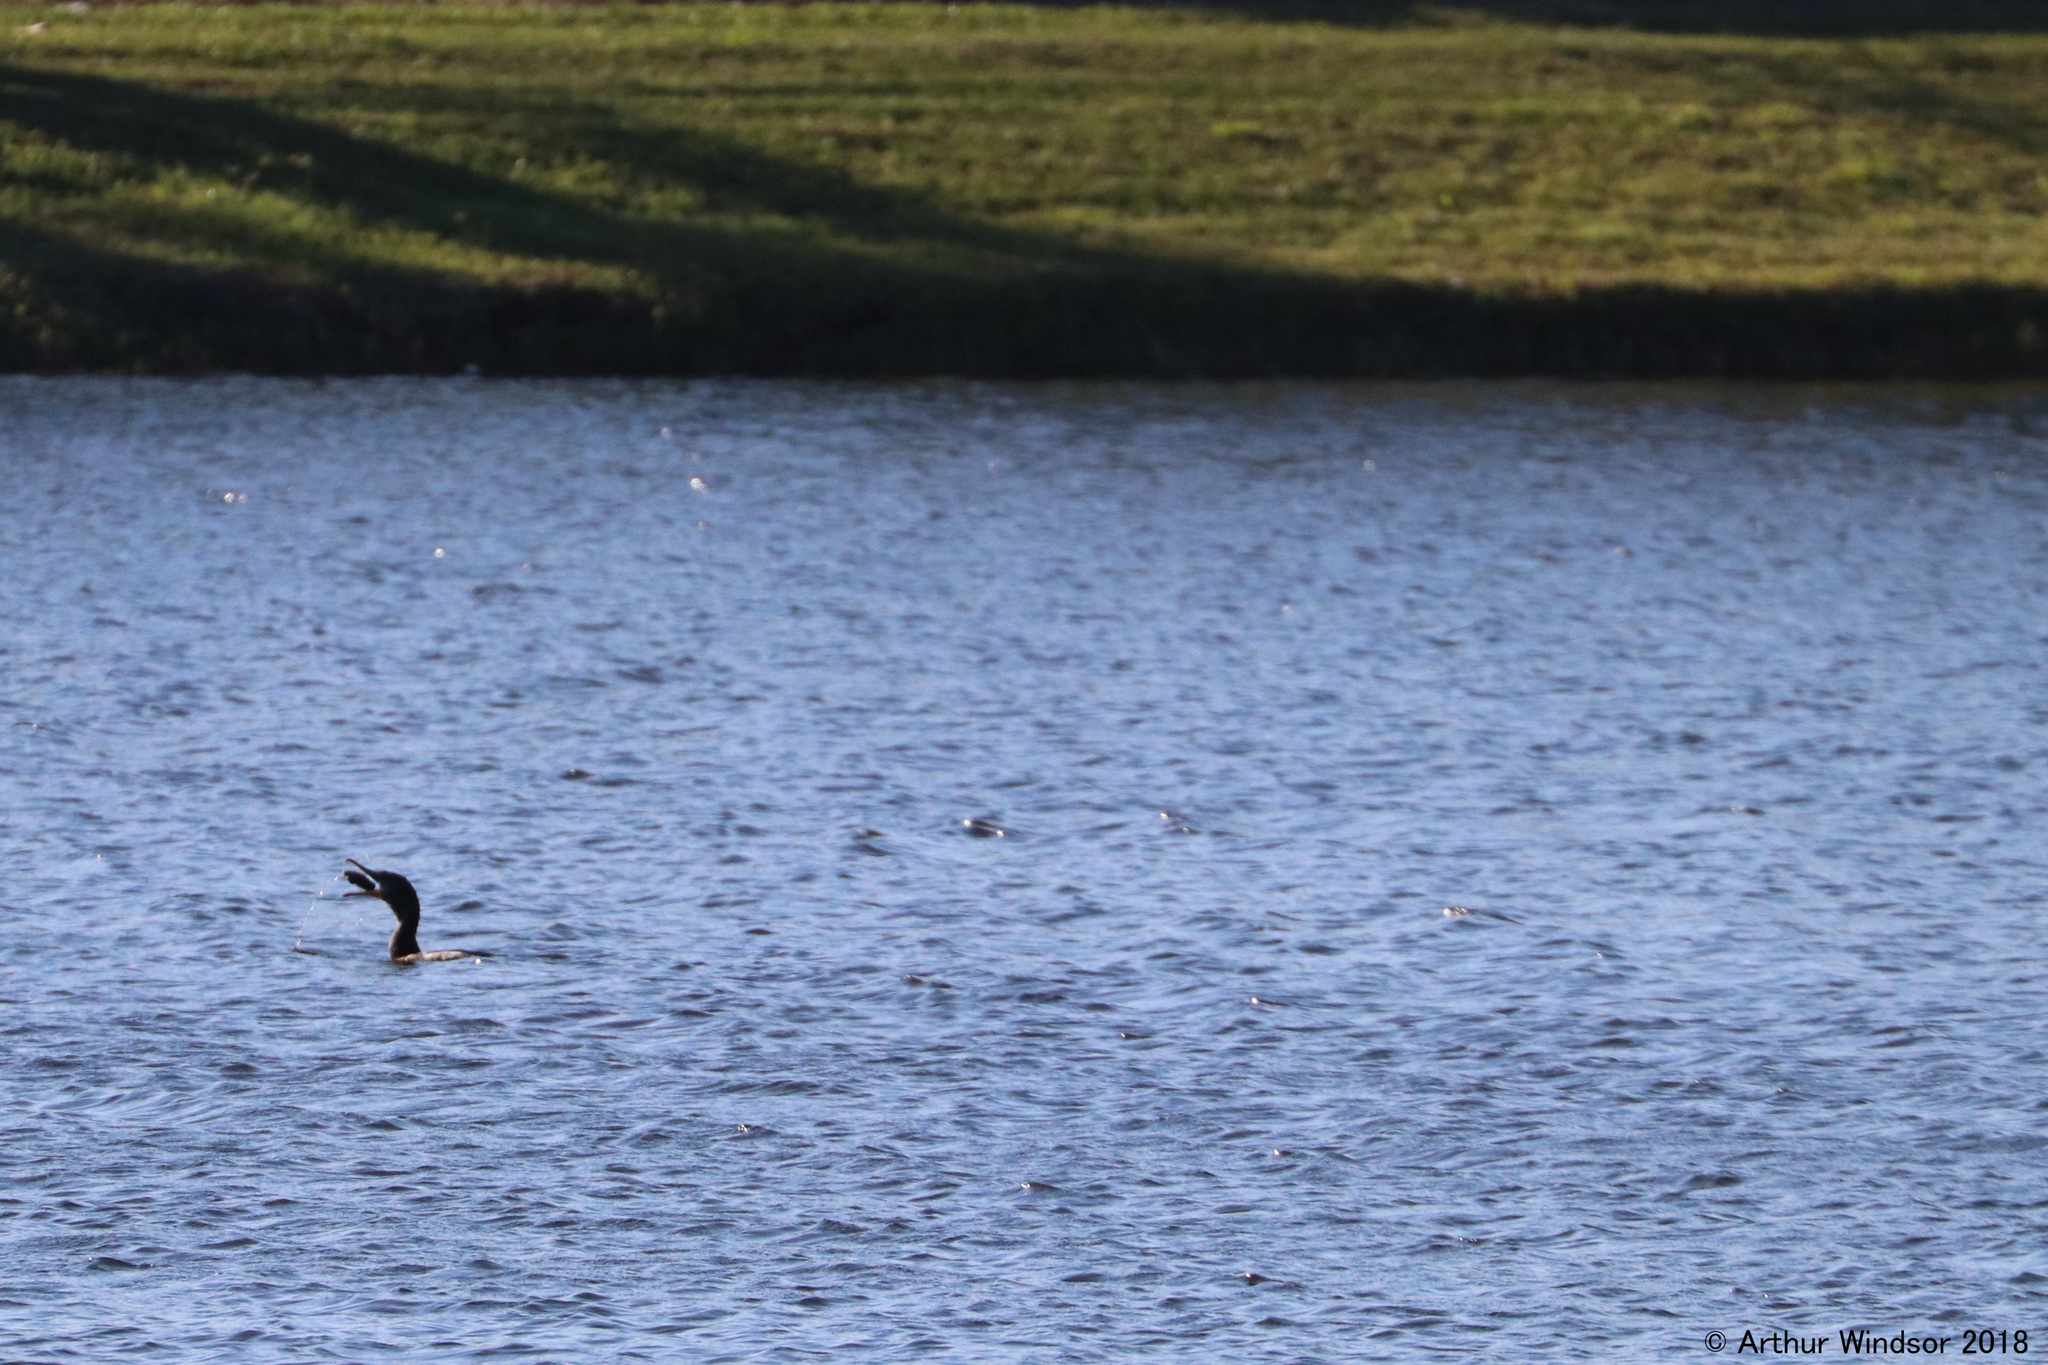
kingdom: Animalia
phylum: Chordata
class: Aves
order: Suliformes
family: Phalacrocoracidae
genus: Phalacrocorax
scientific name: Phalacrocorax auritus
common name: Double-crested cormorant
